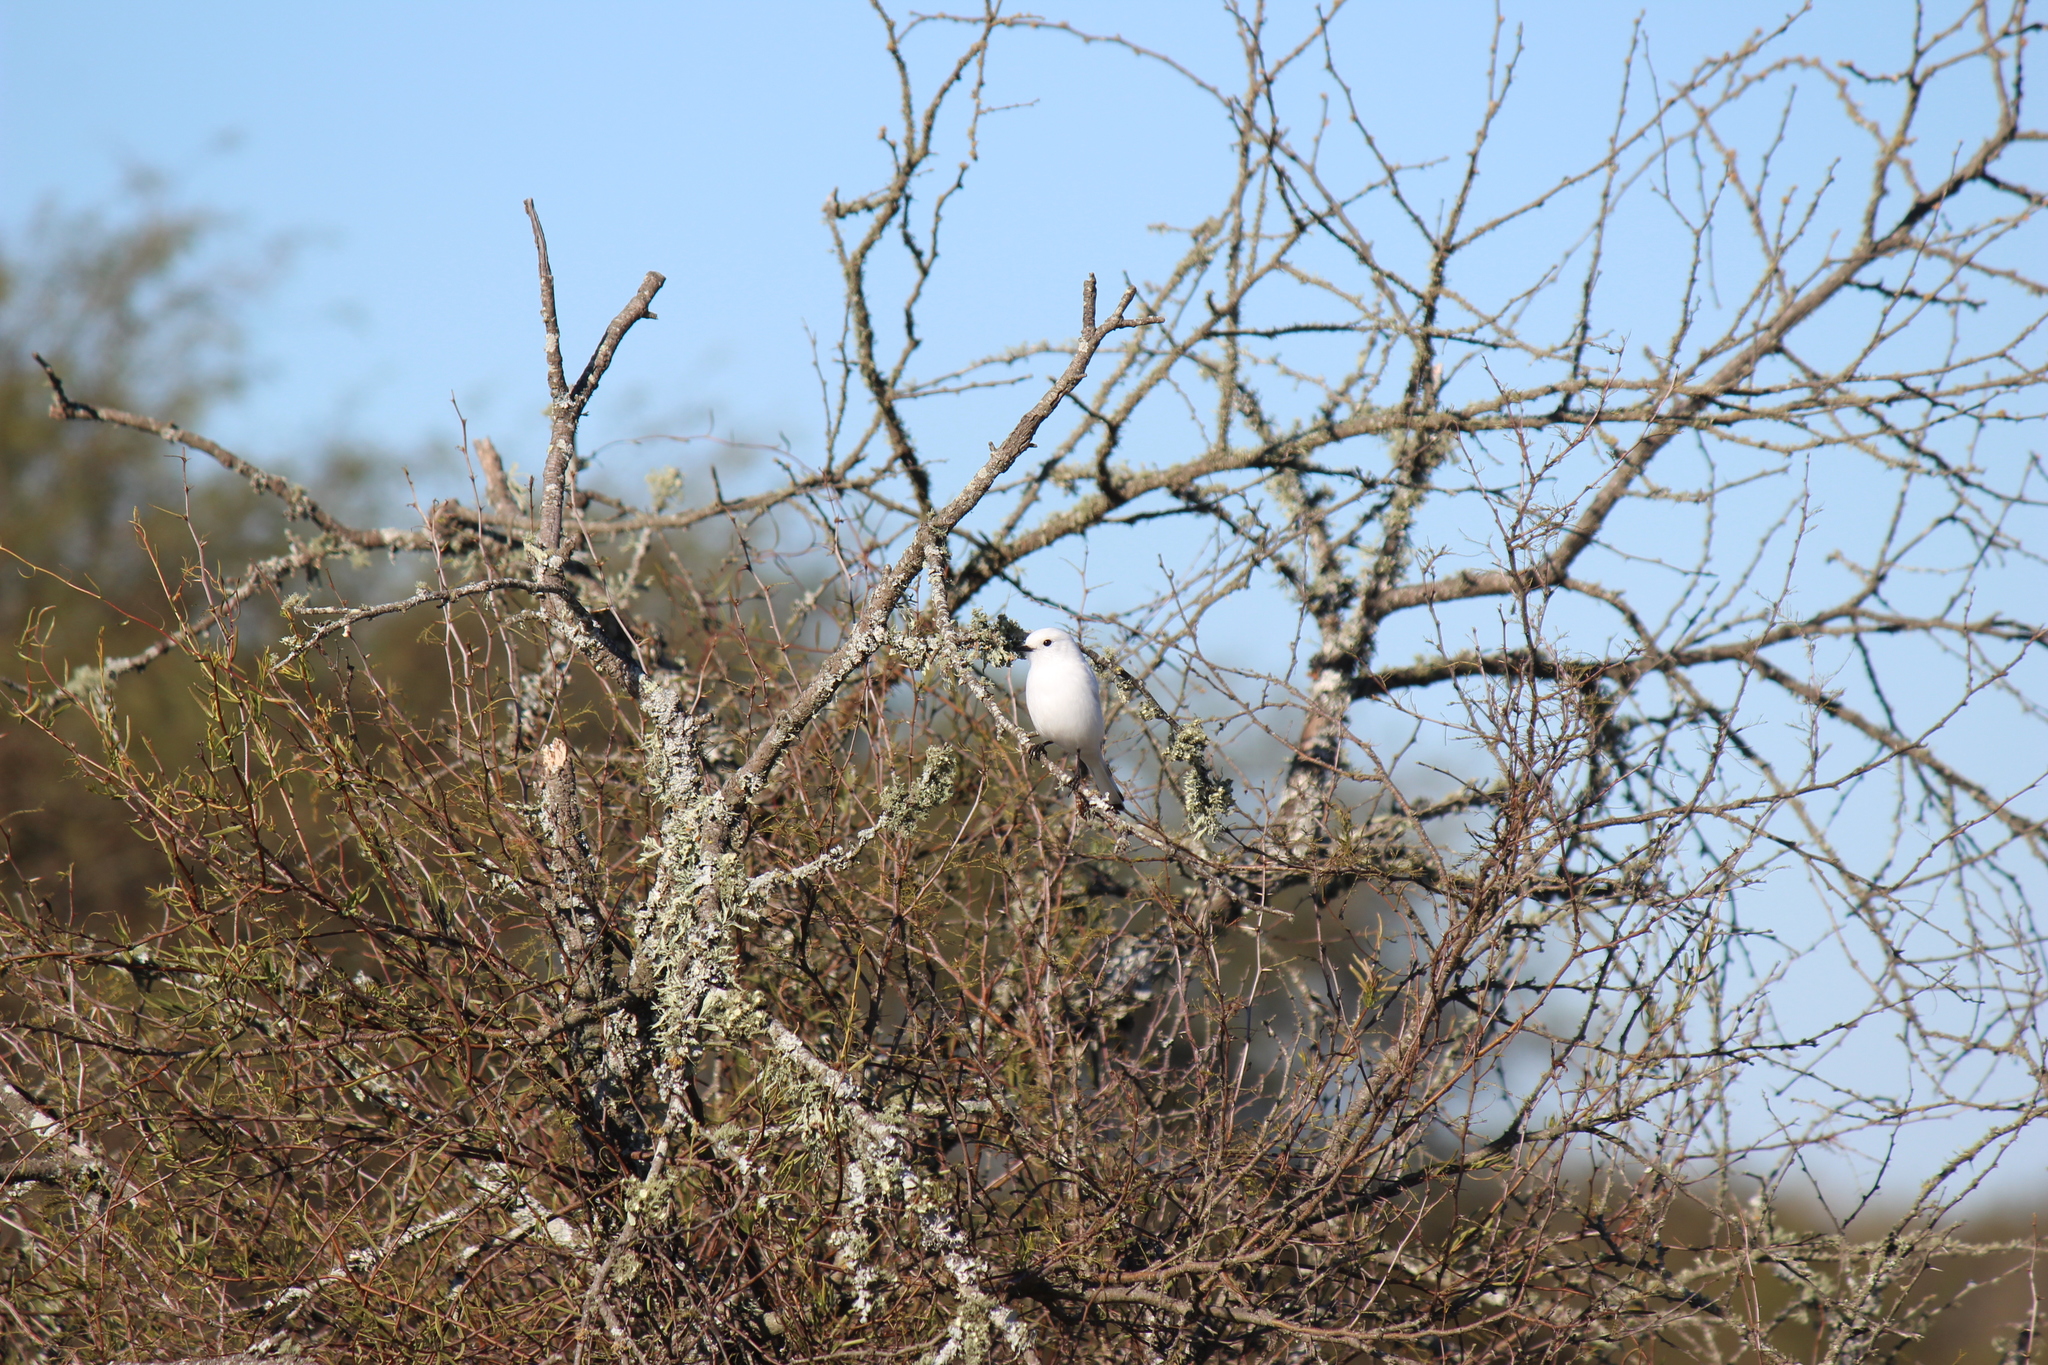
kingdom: Animalia
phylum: Chordata
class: Aves
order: Passeriformes
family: Tyrannidae
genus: Xolmis
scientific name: Xolmis irupero
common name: White monjita
